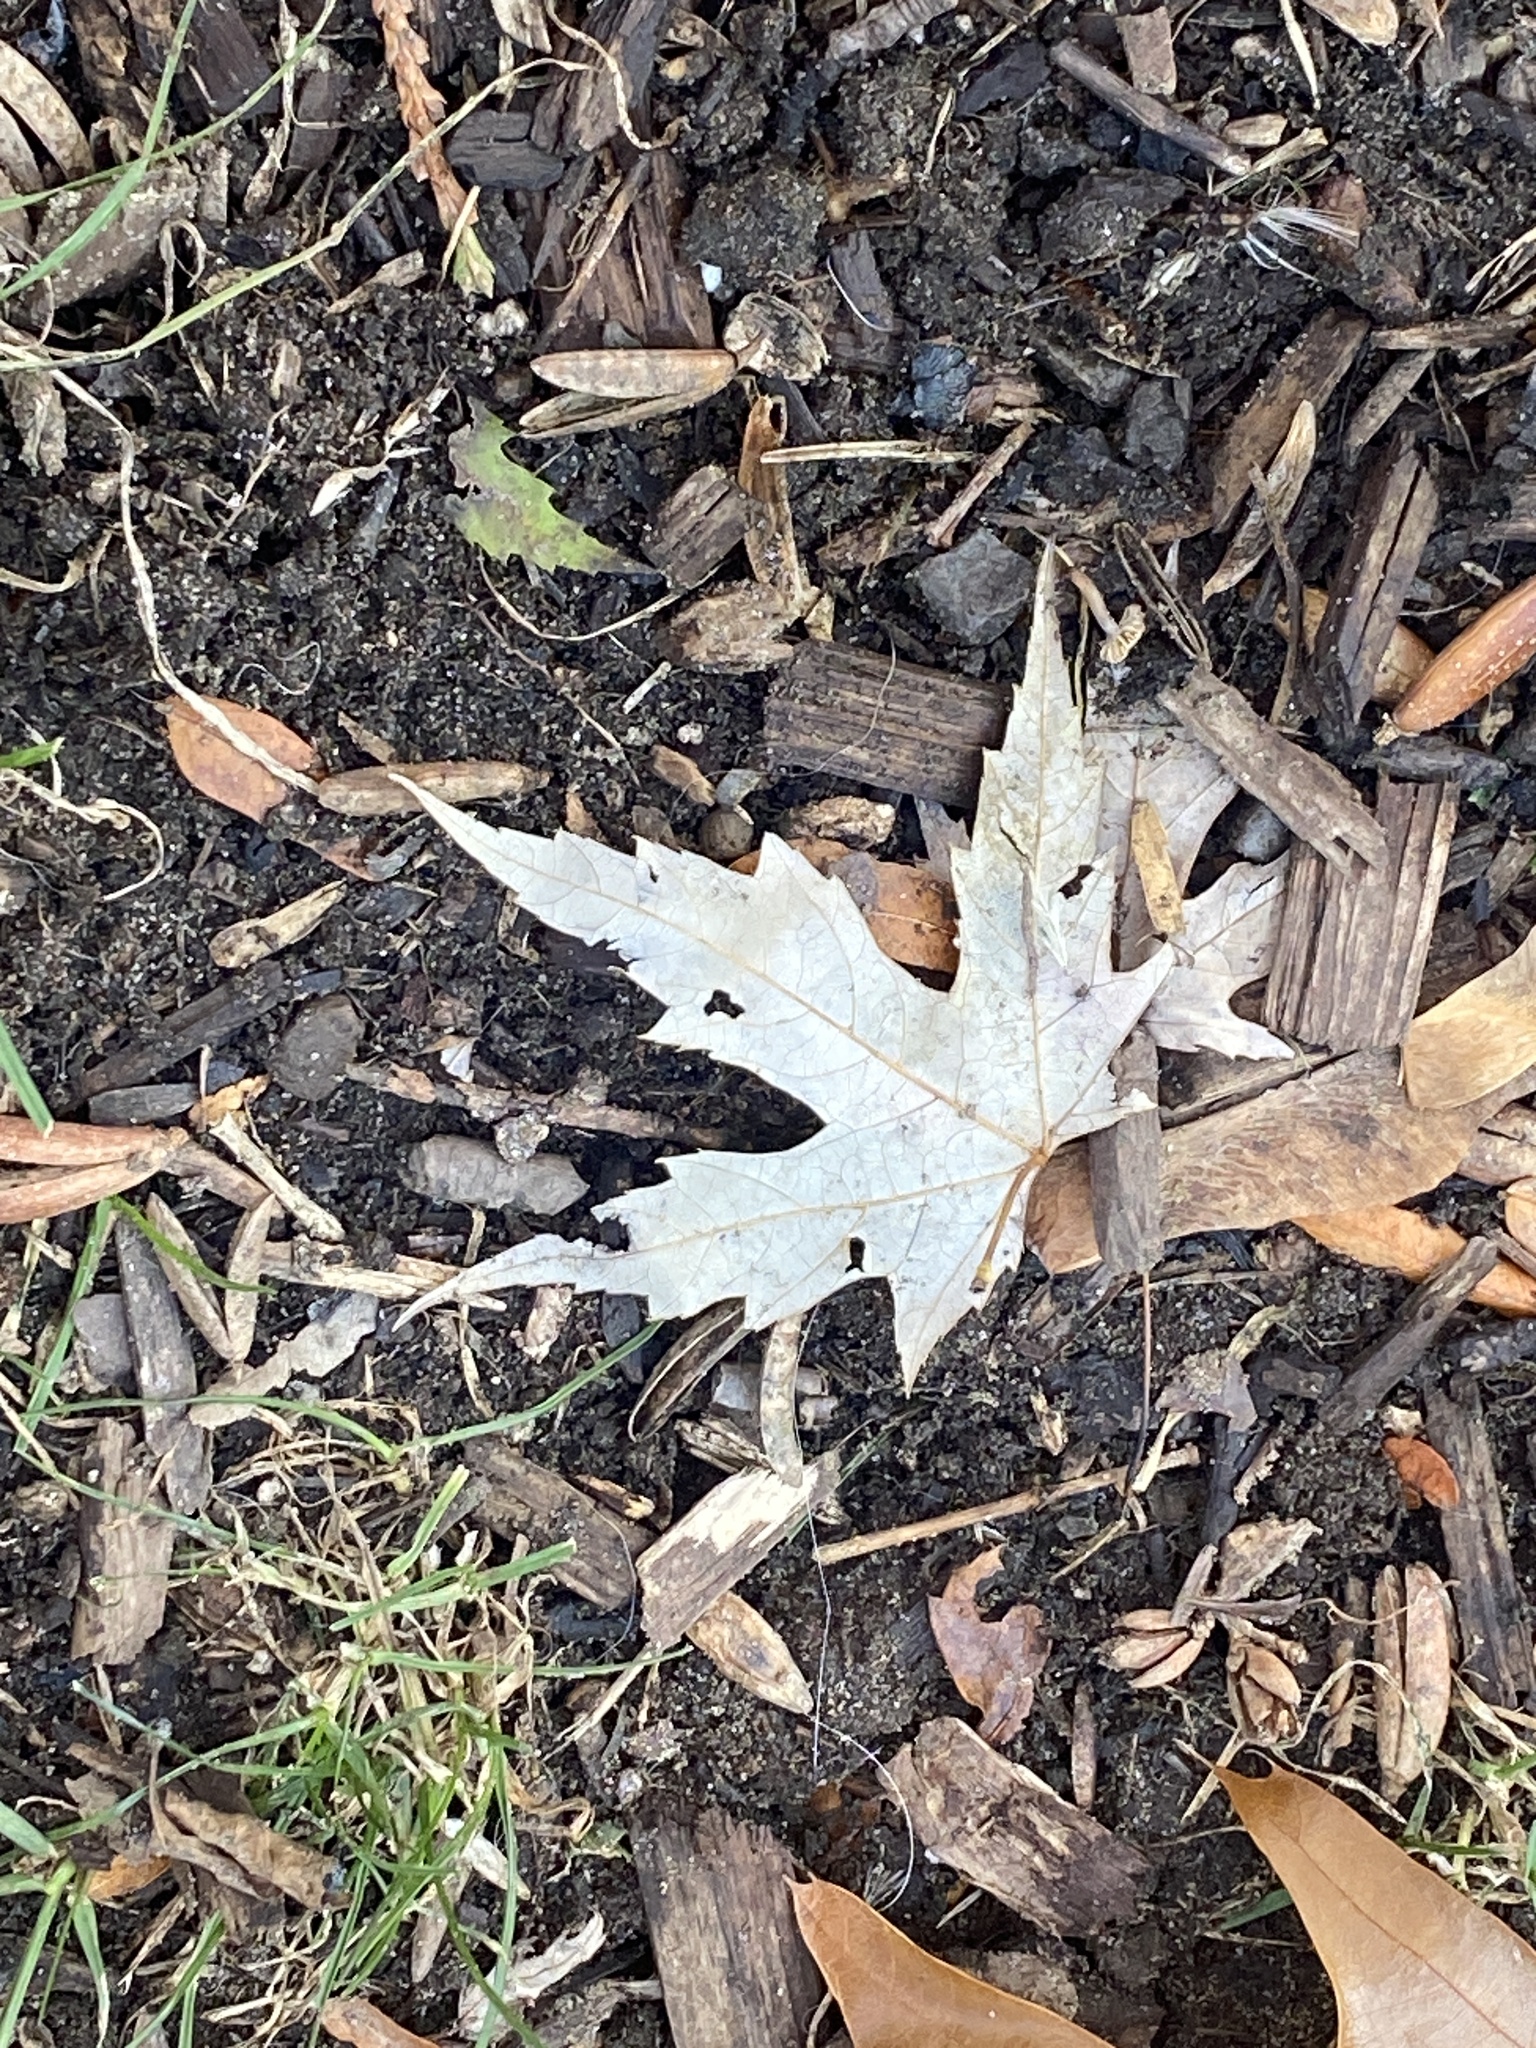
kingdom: Plantae
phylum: Tracheophyta
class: Magnoliopsida
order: Sapindales
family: Sapindaceae
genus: Acer
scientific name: Acer saccharinum
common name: Silver maple
